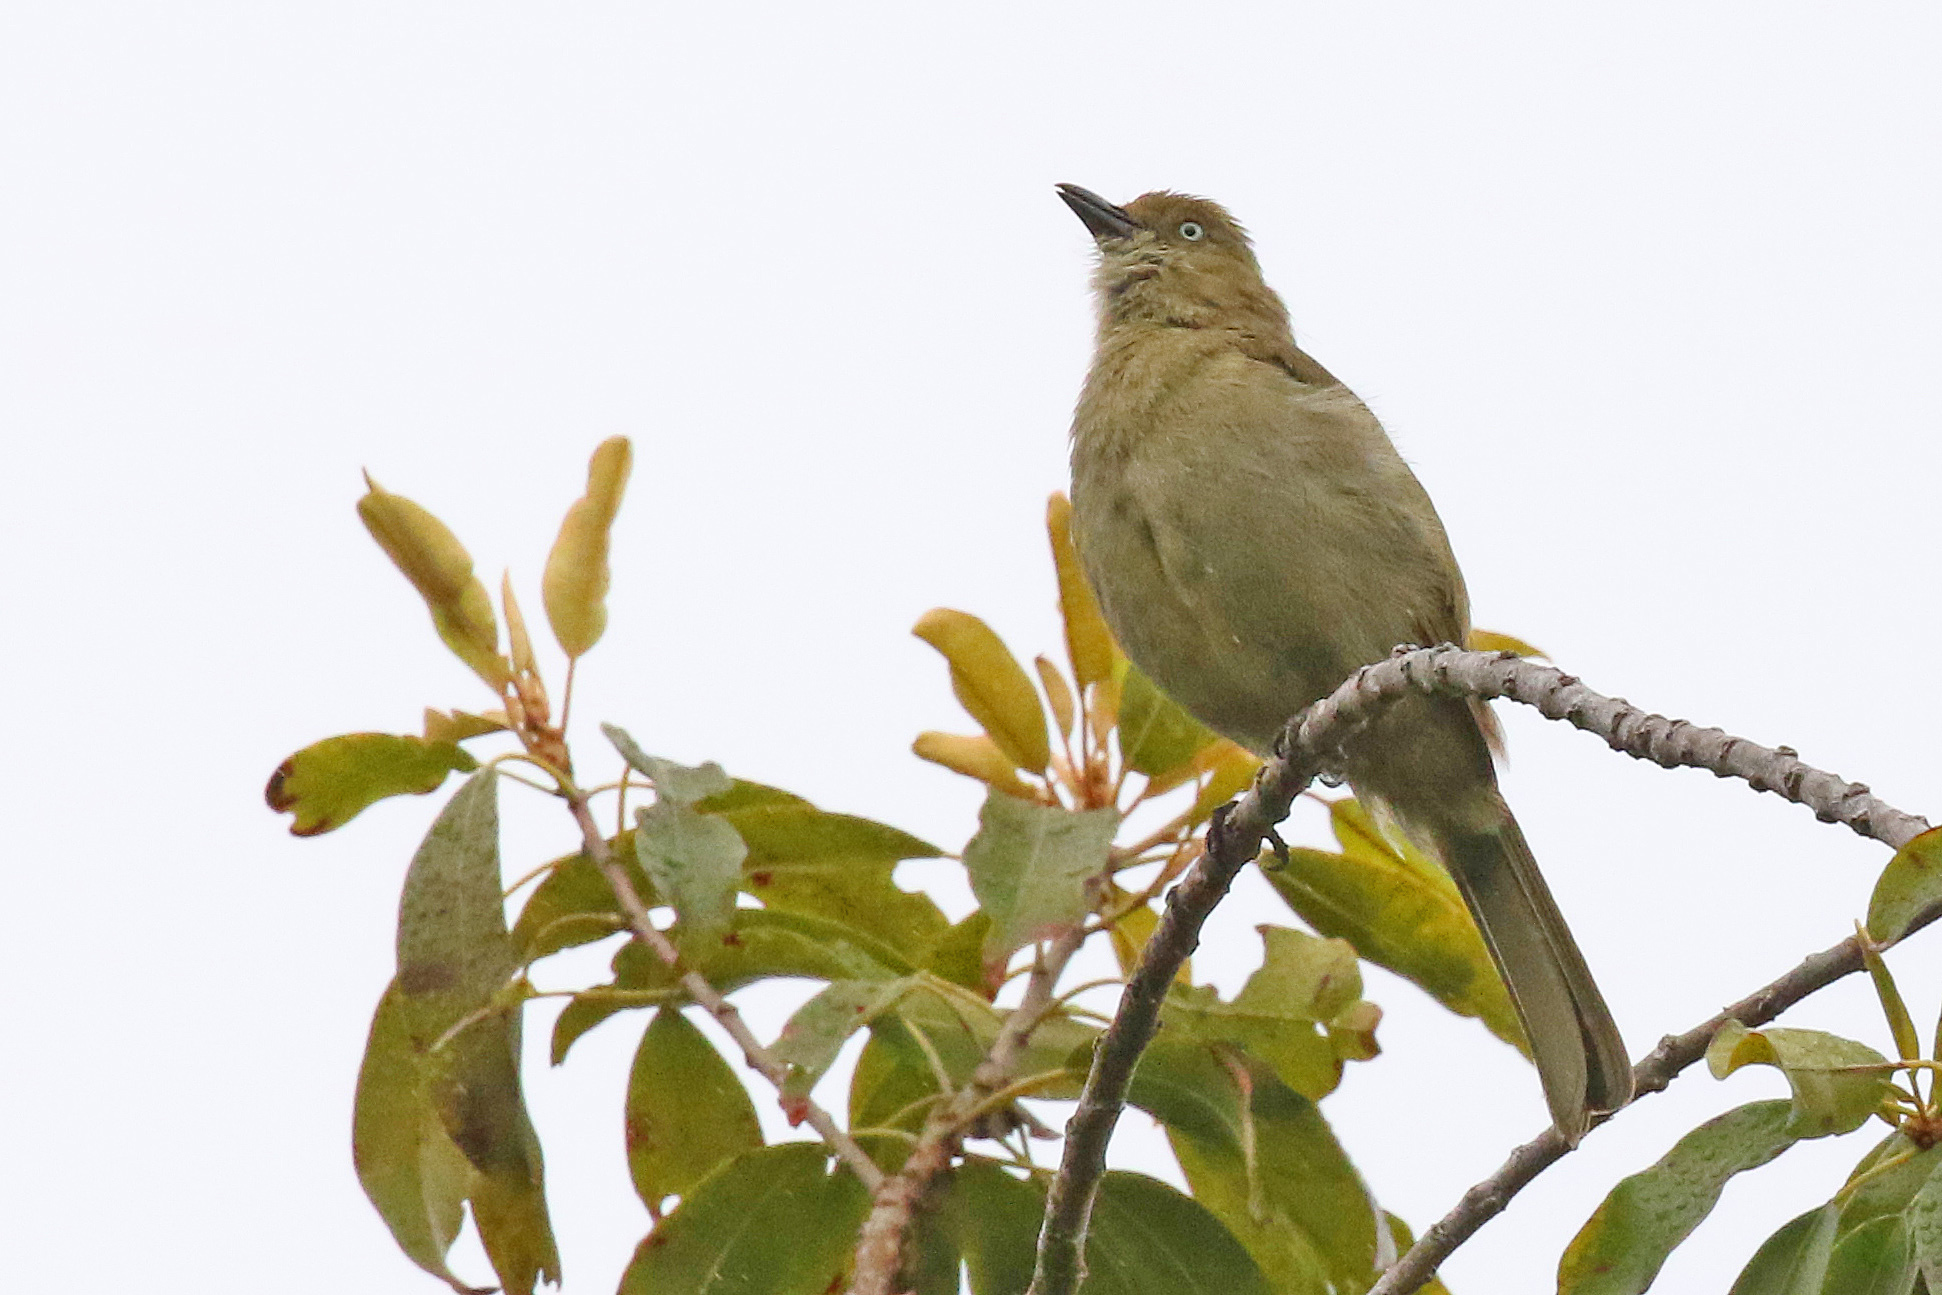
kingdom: Animalia
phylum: Chordata
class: Aves
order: Passeriformes
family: Pycnonotidae
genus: Andropadus
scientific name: Andropadus importunus
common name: Sombre greenbul
